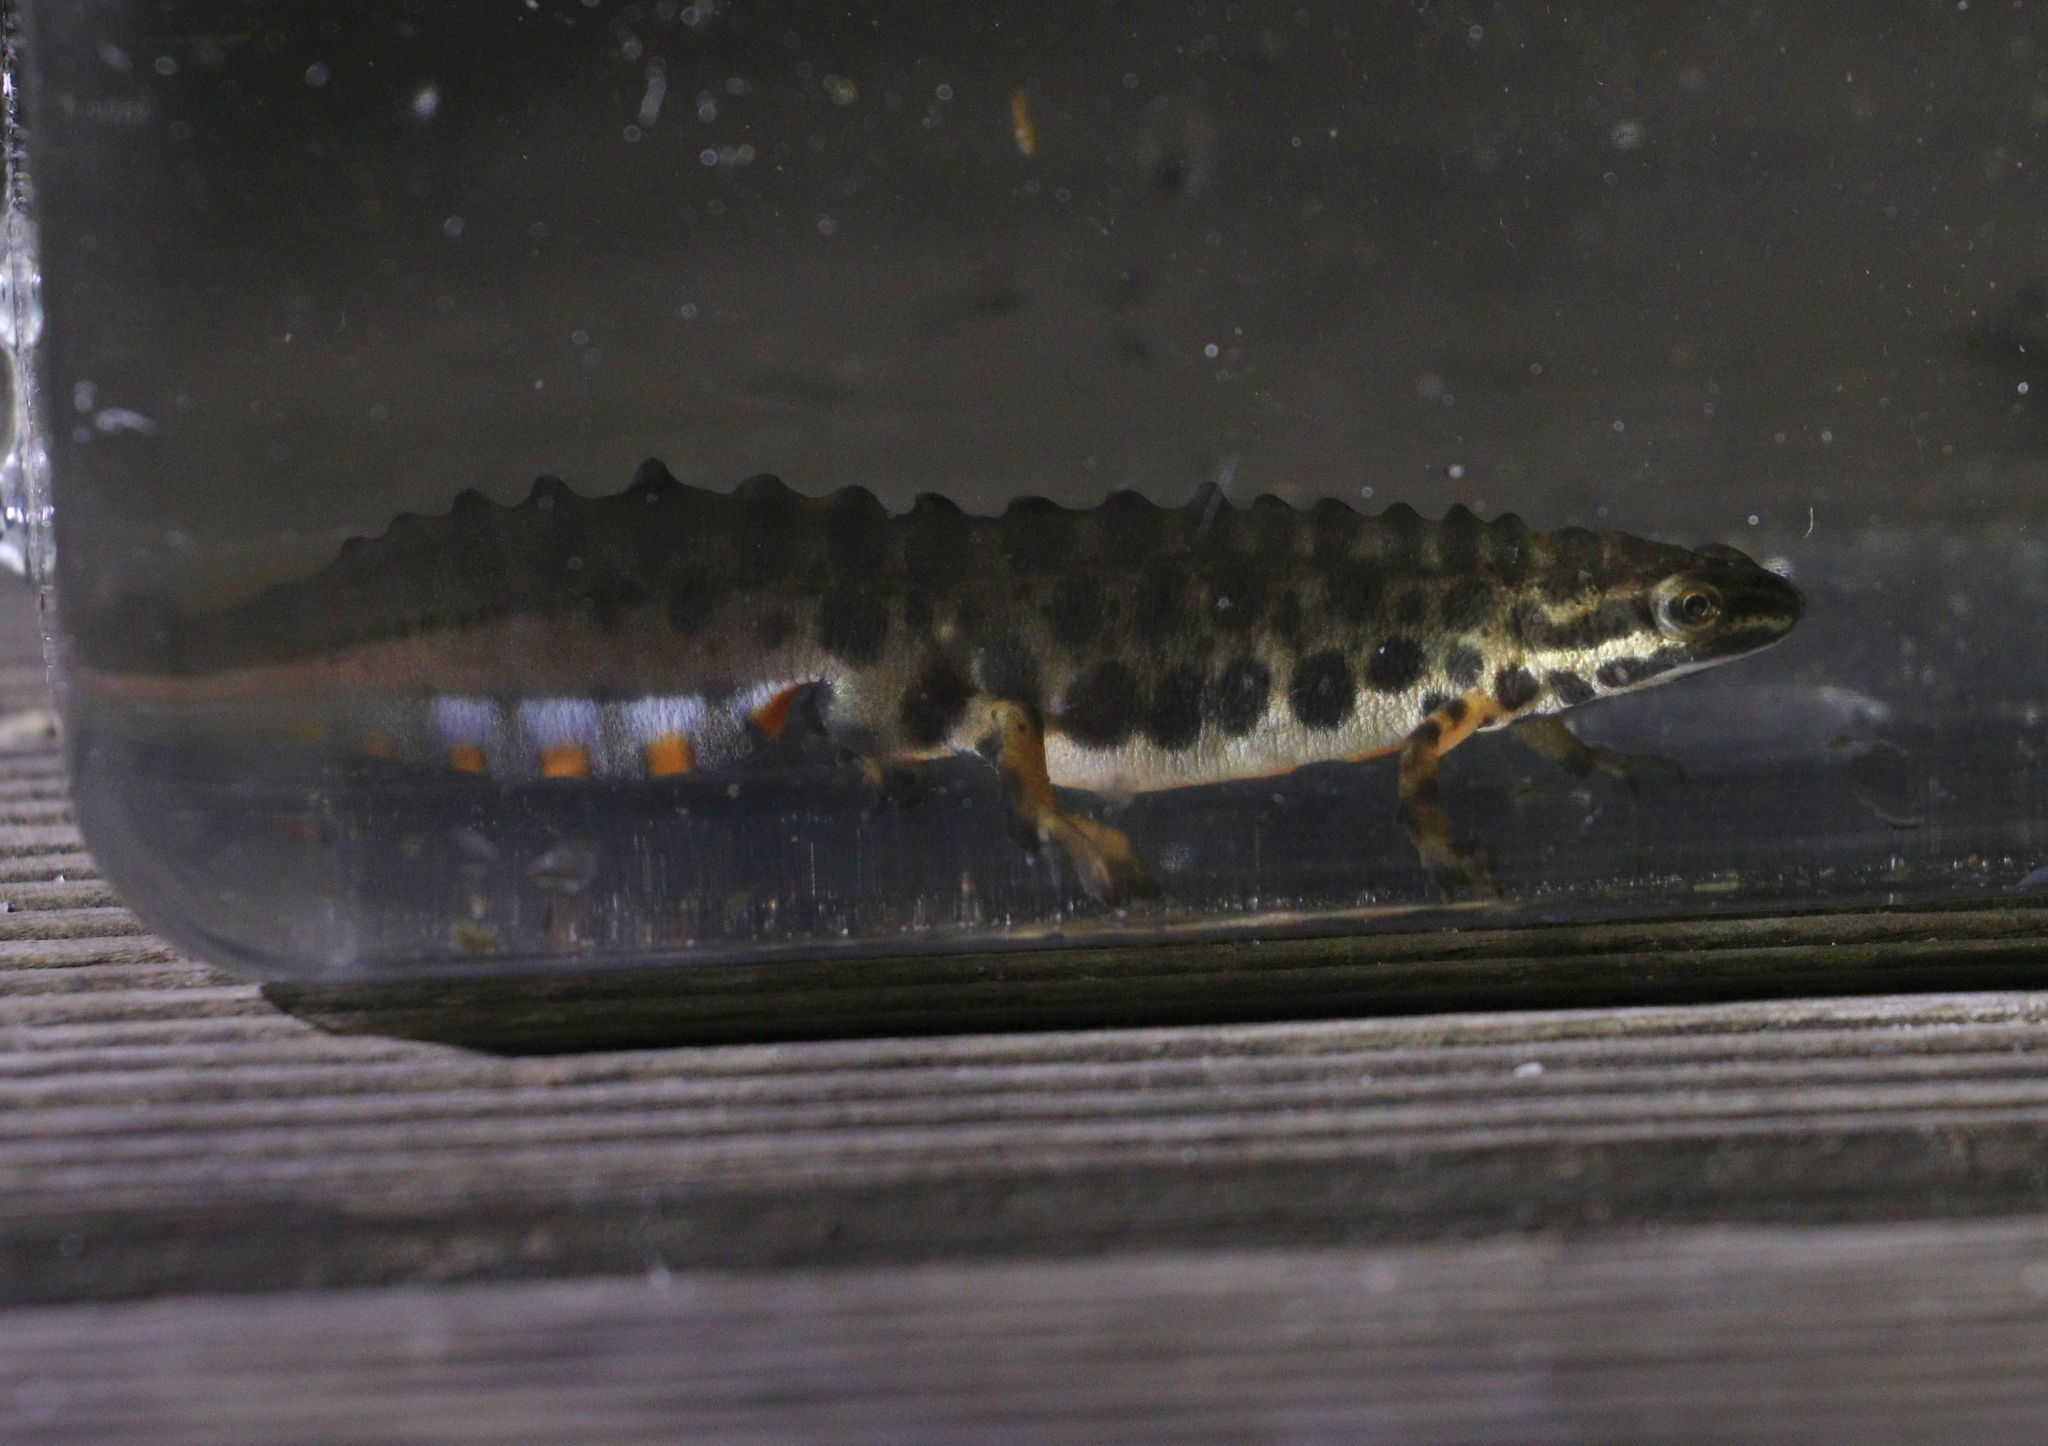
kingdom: Animalia
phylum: Chordata
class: Amphibia
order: Caudata
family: Salamandridae
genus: Lissotriton
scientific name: Lissotriton vulgaris
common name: Smooth newt
